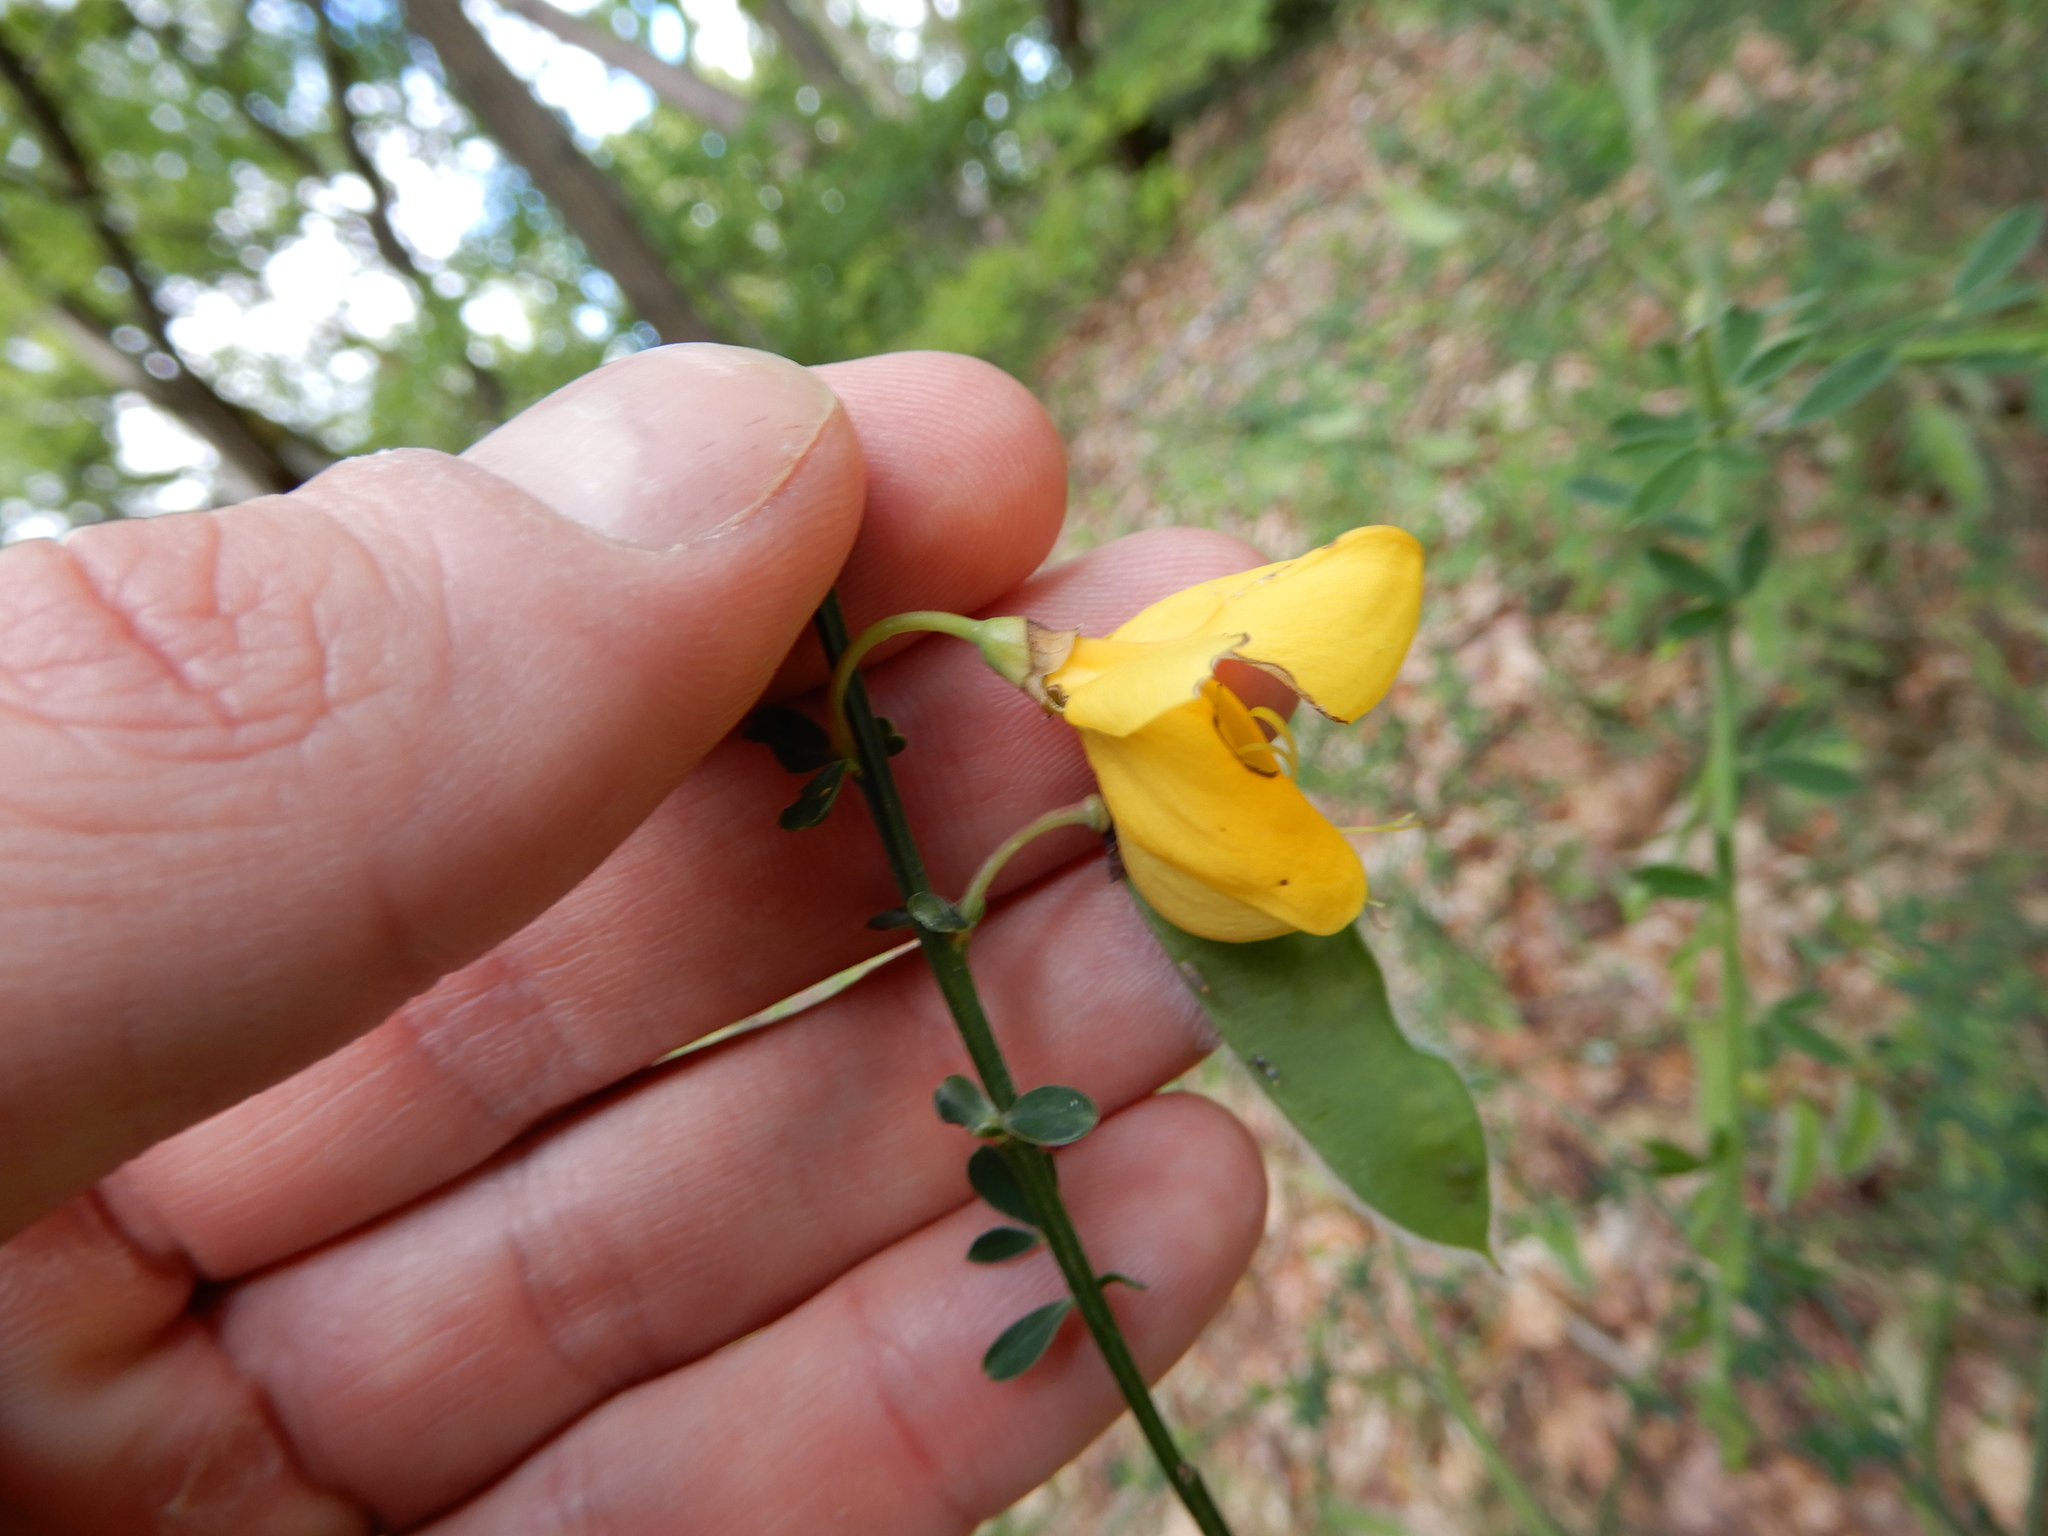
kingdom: Plantae
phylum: Tracheophyta
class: Magnoliopsida
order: Fabales
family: Fabaceae
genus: Cytisus
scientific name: Cytisus scoparius
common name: Scotch broom
